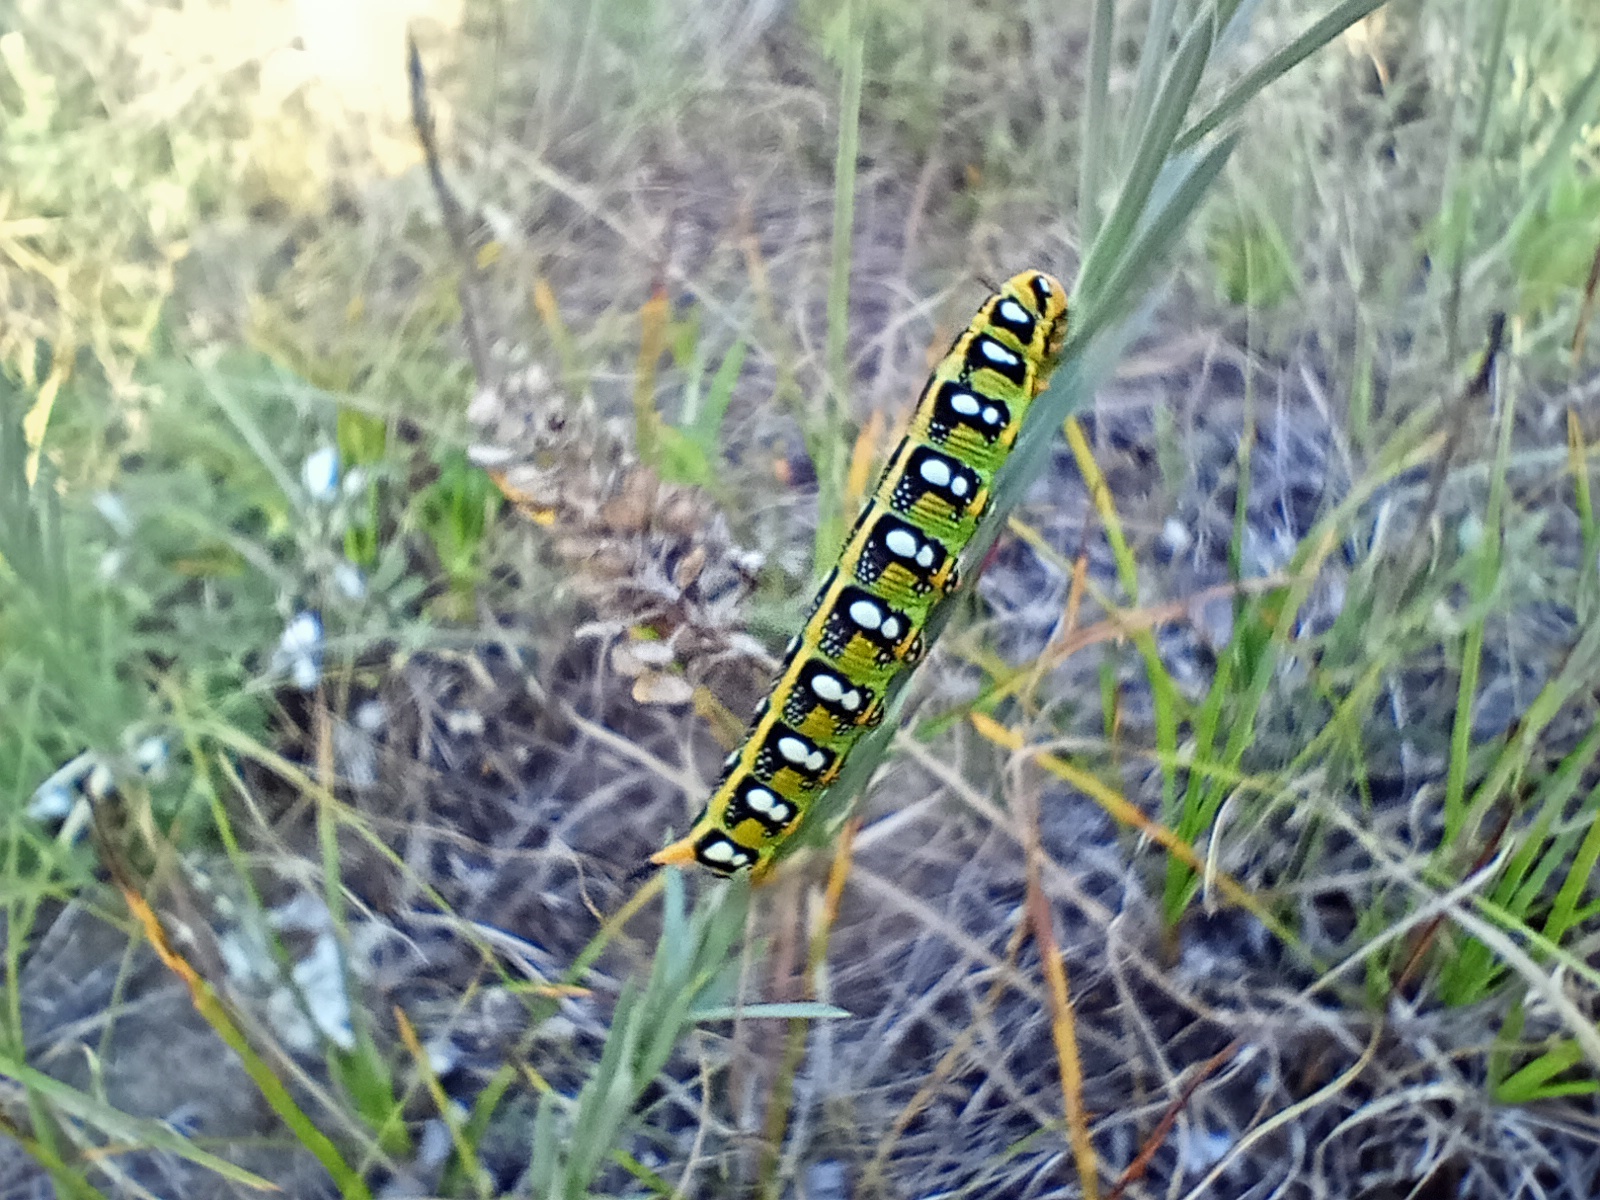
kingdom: Animalia
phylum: Arthropoda
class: Insecta
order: Lepidoptera
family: Sphingidae
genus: Hyles
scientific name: Hyles euphorbiae
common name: Spurge hawk-moth
